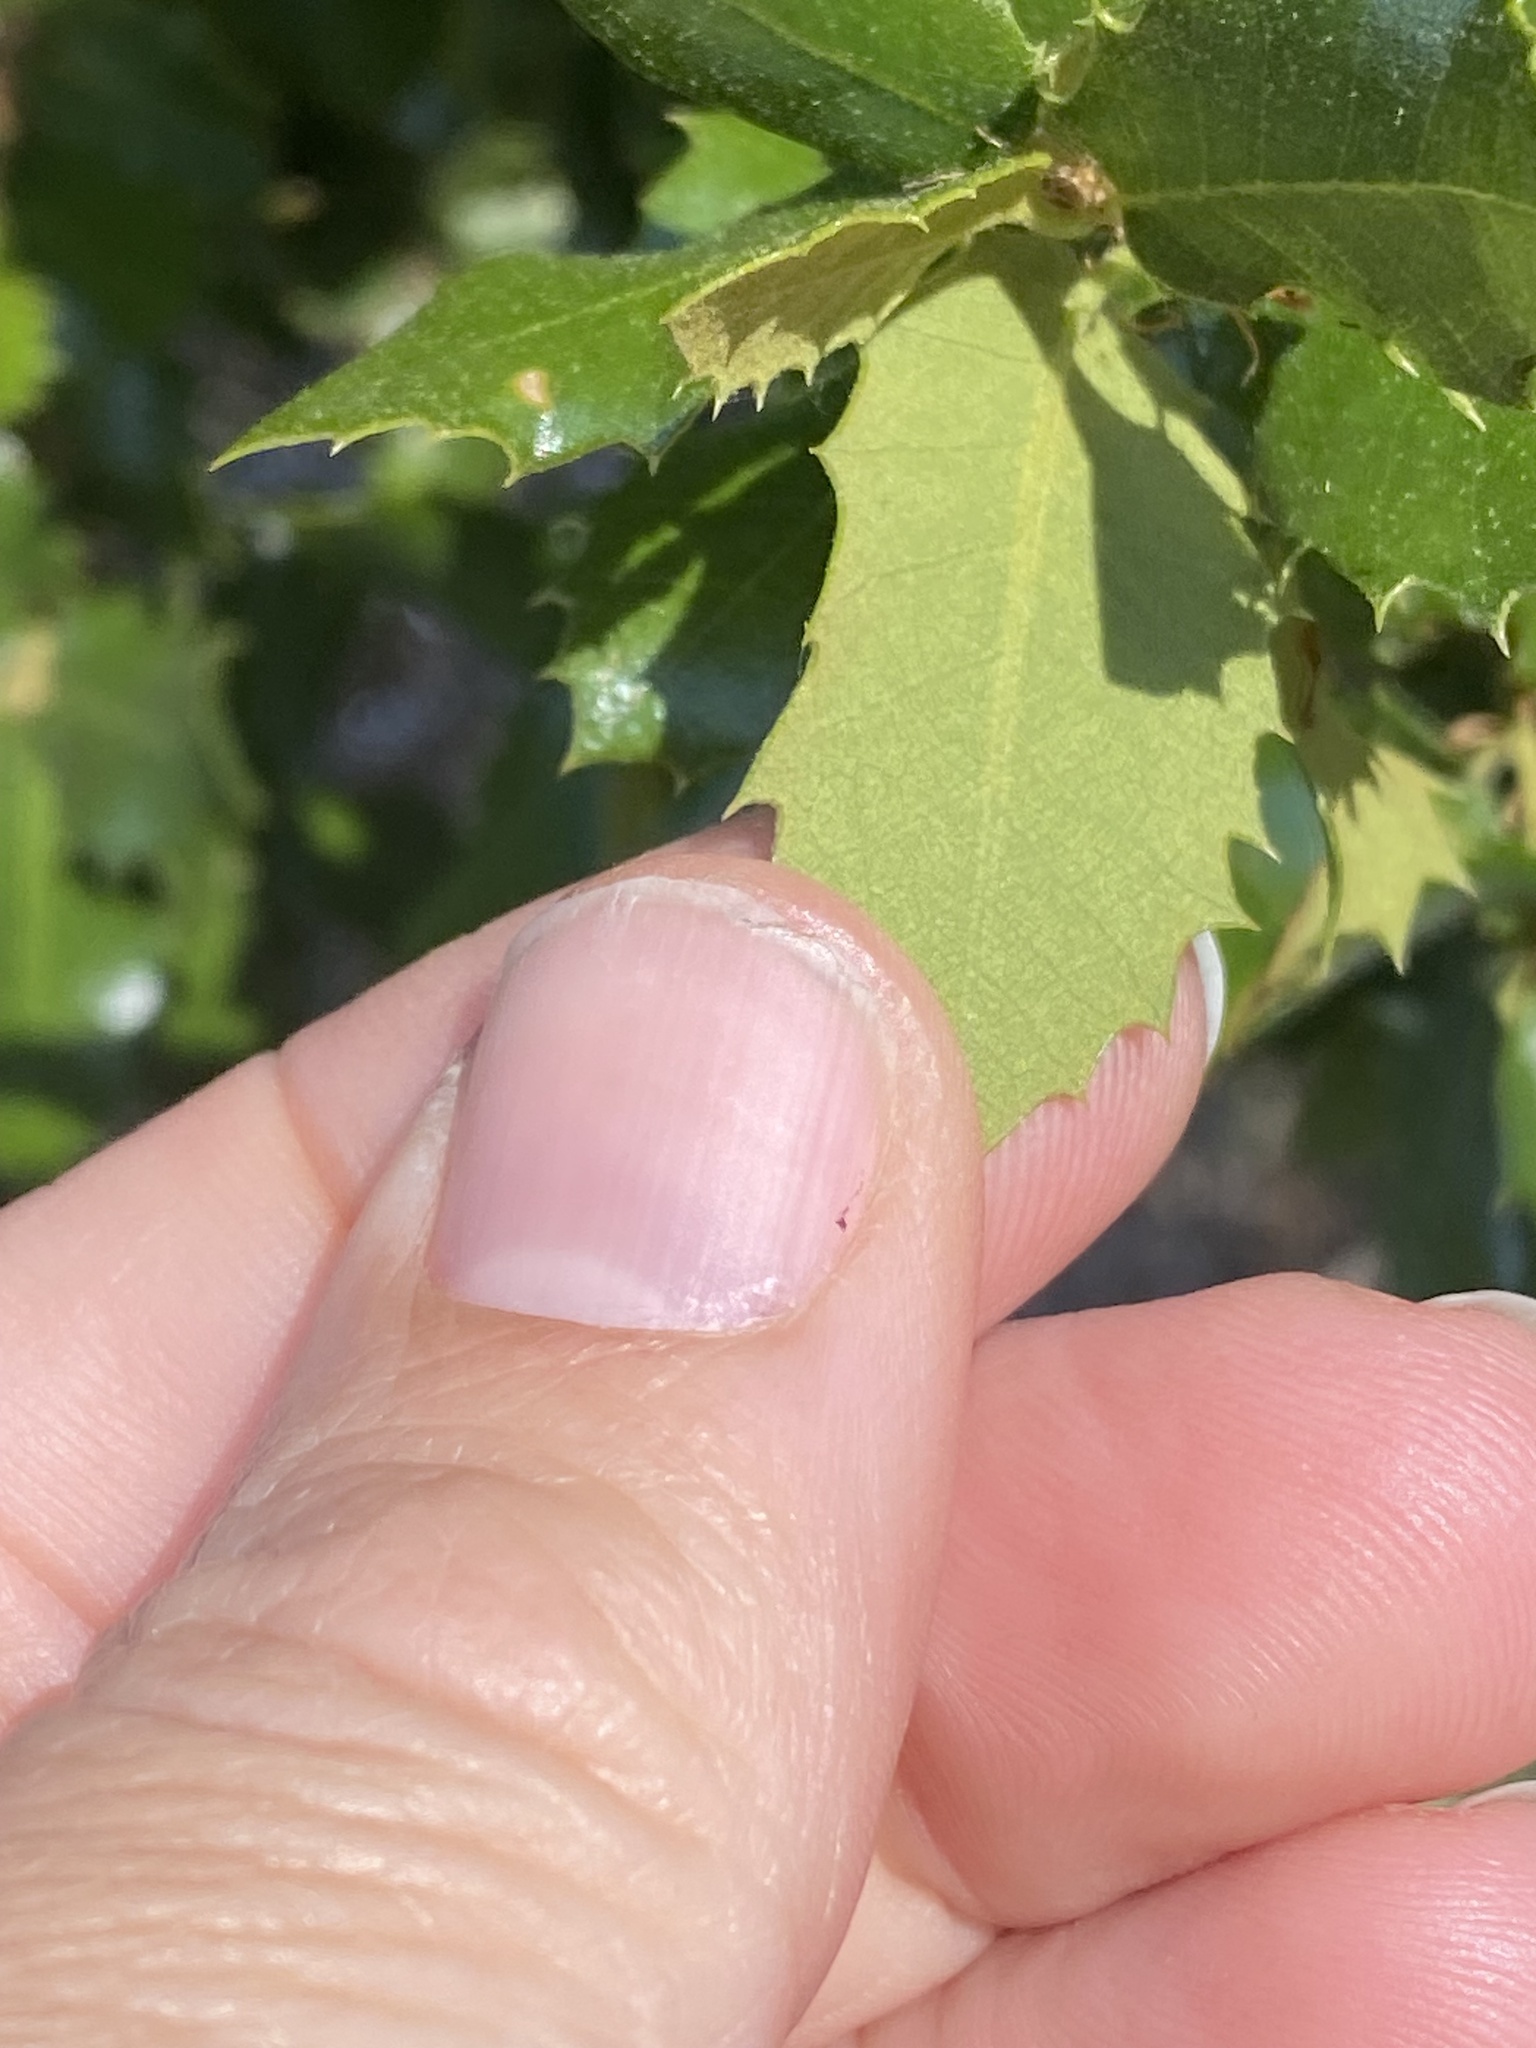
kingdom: Plantae
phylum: Tracheophyta
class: Magnoliopsida
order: Fagales
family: Fagaceae
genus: Quercus
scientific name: Quercus chrysolepis
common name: Canyon live oak
